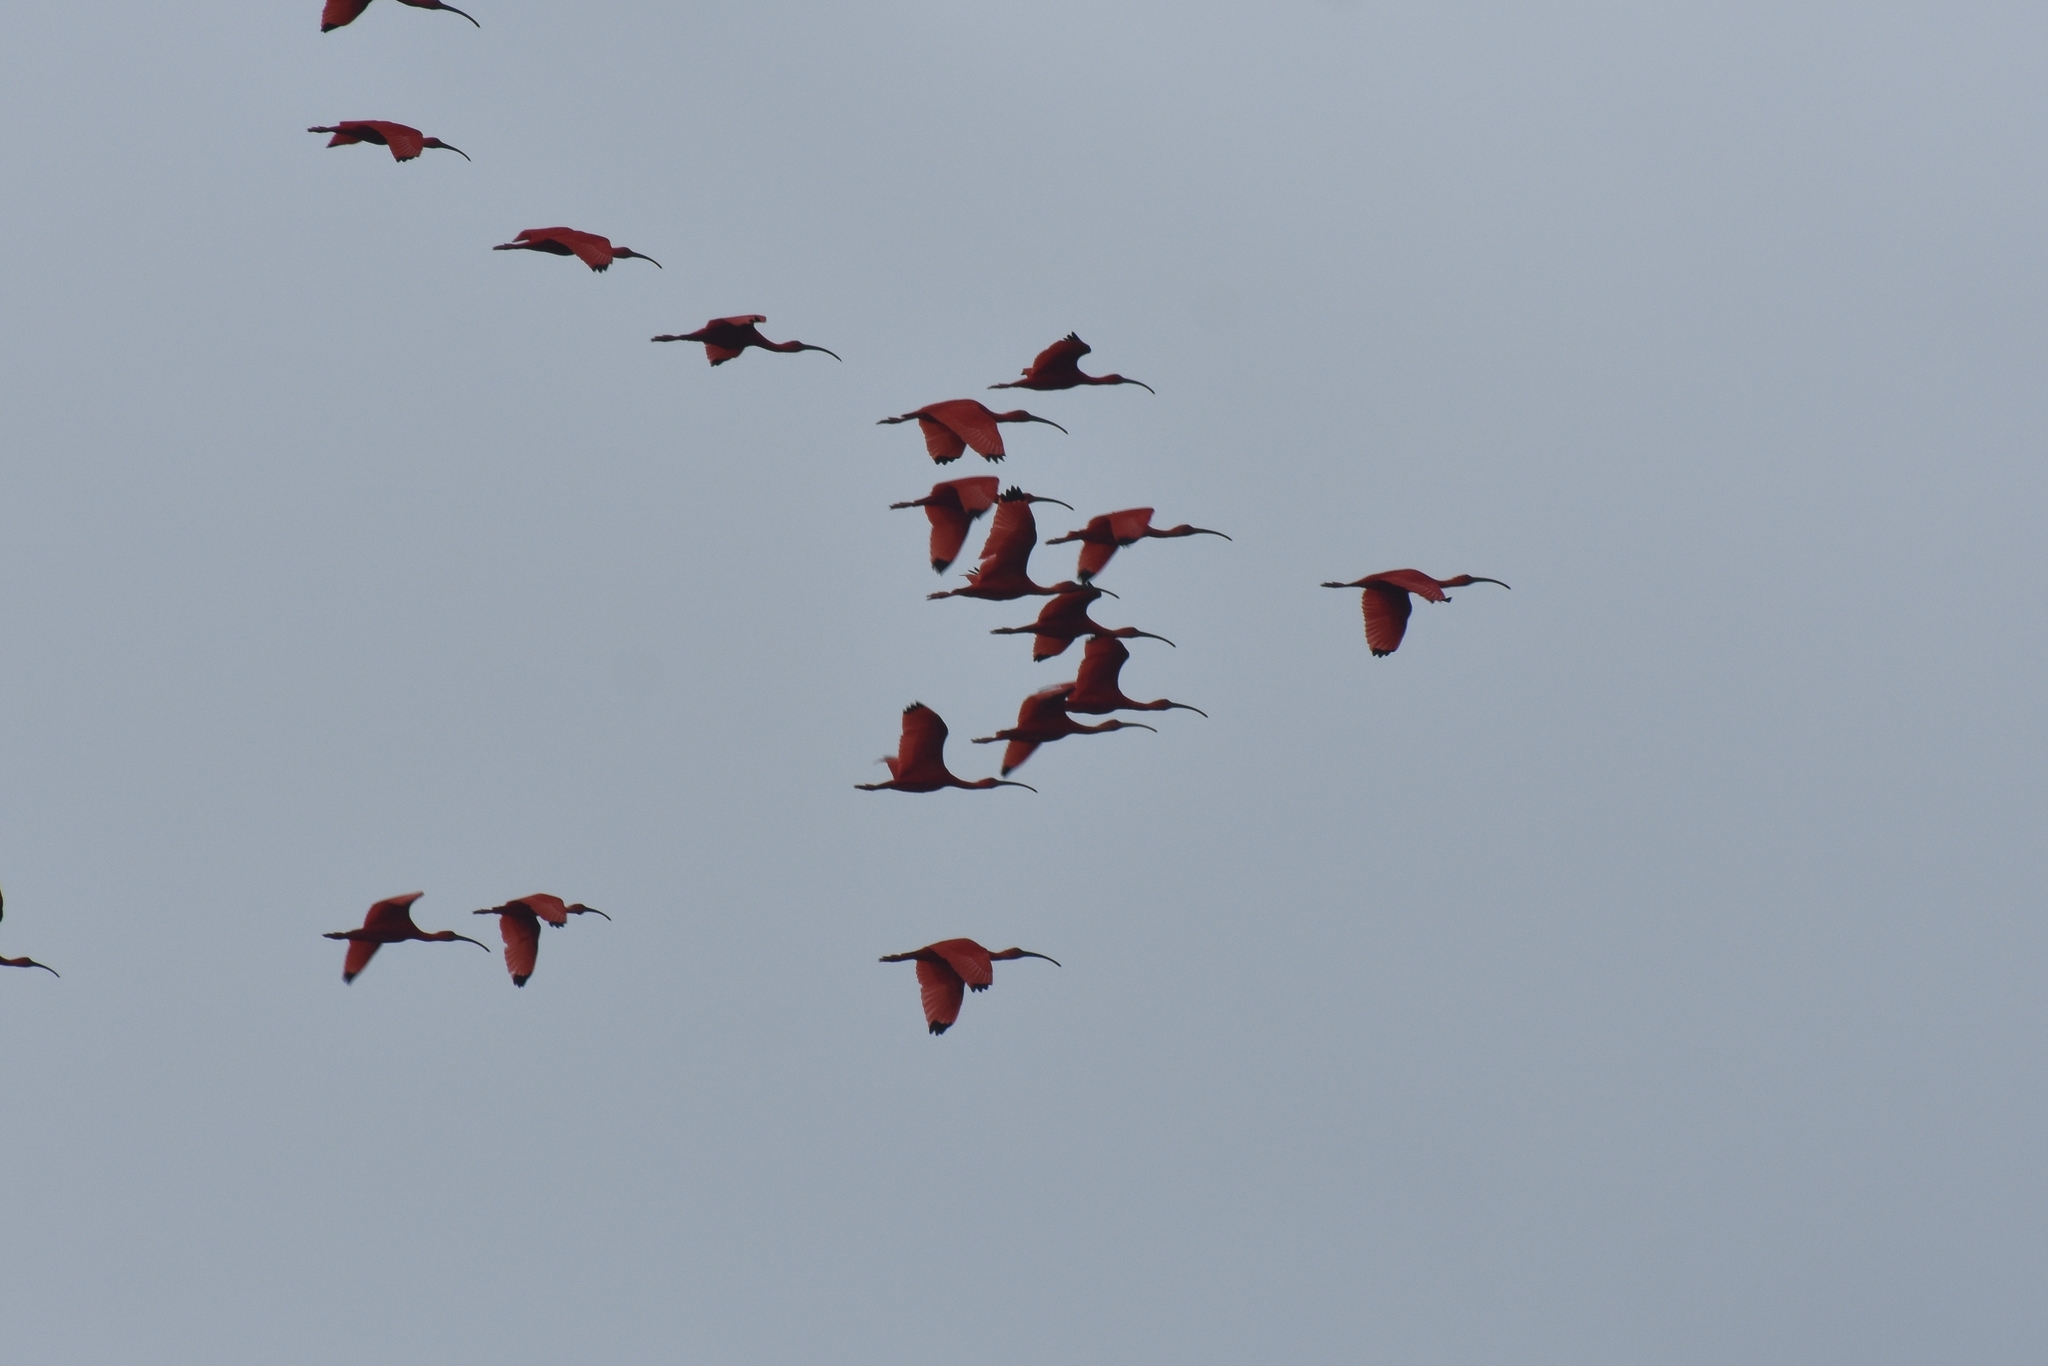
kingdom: Animalia
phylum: Chordata
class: Aves
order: Pelecaniformes
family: Threskiornithidae
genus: Eudocimus
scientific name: Eudocimus ruber
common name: Scarlet ibis
